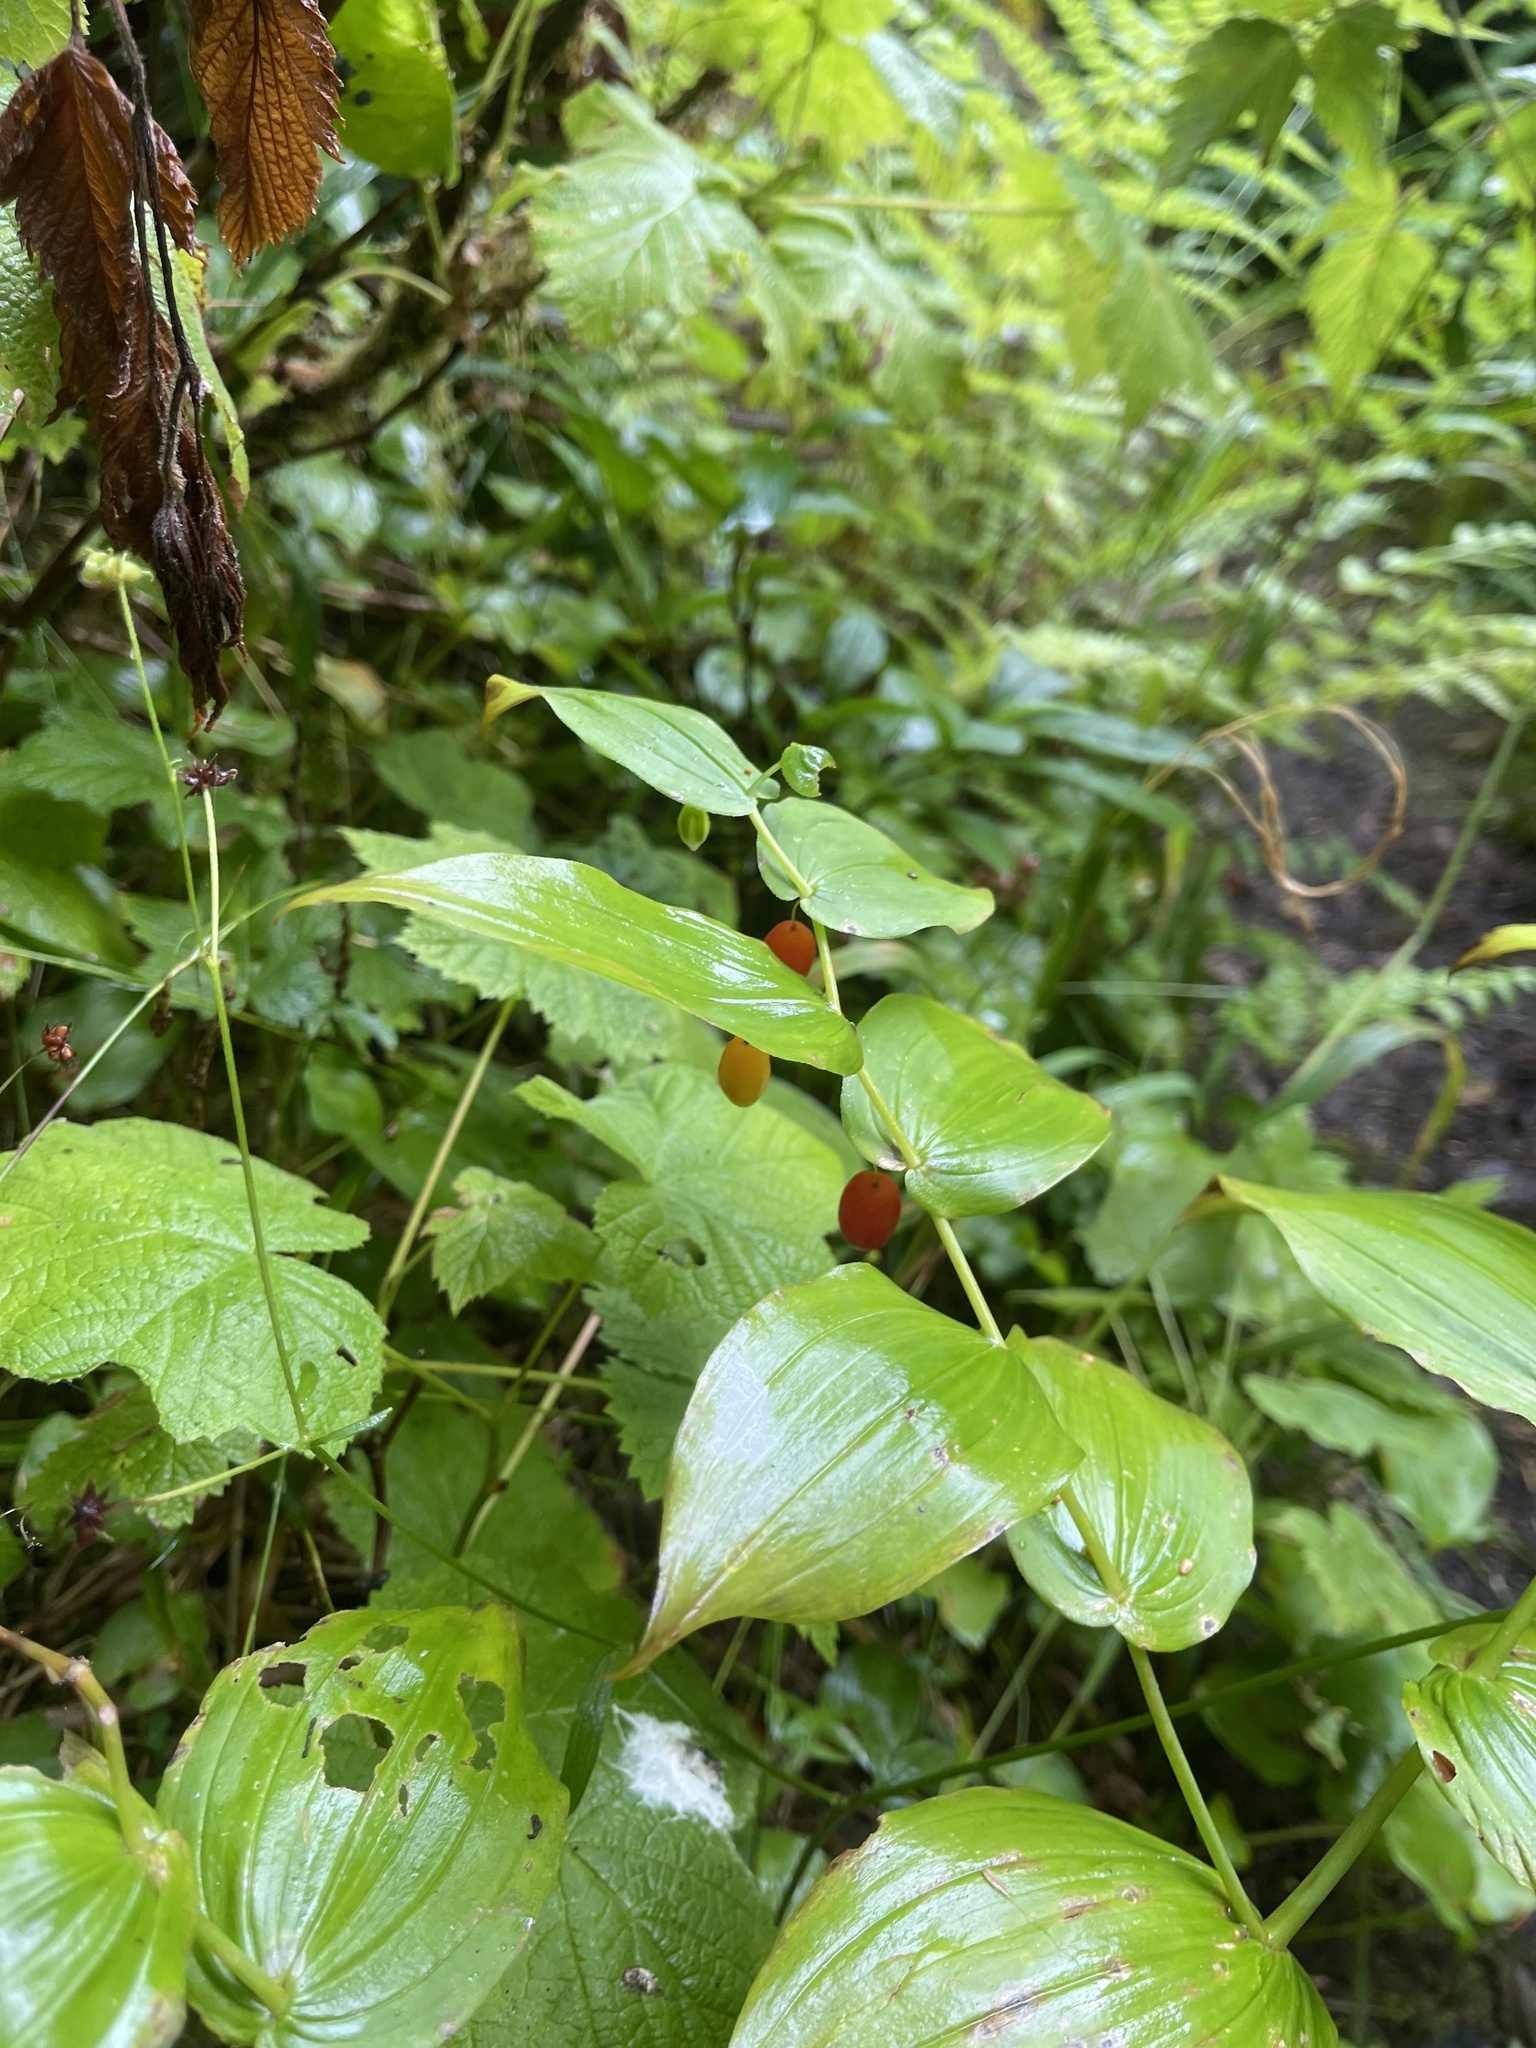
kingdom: Plantae
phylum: Tracheophyta
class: Liliopsida
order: Liliales
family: Liliaceae
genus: Streptopus
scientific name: Streptopus amplexifolius
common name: Clasp twisted stalk
